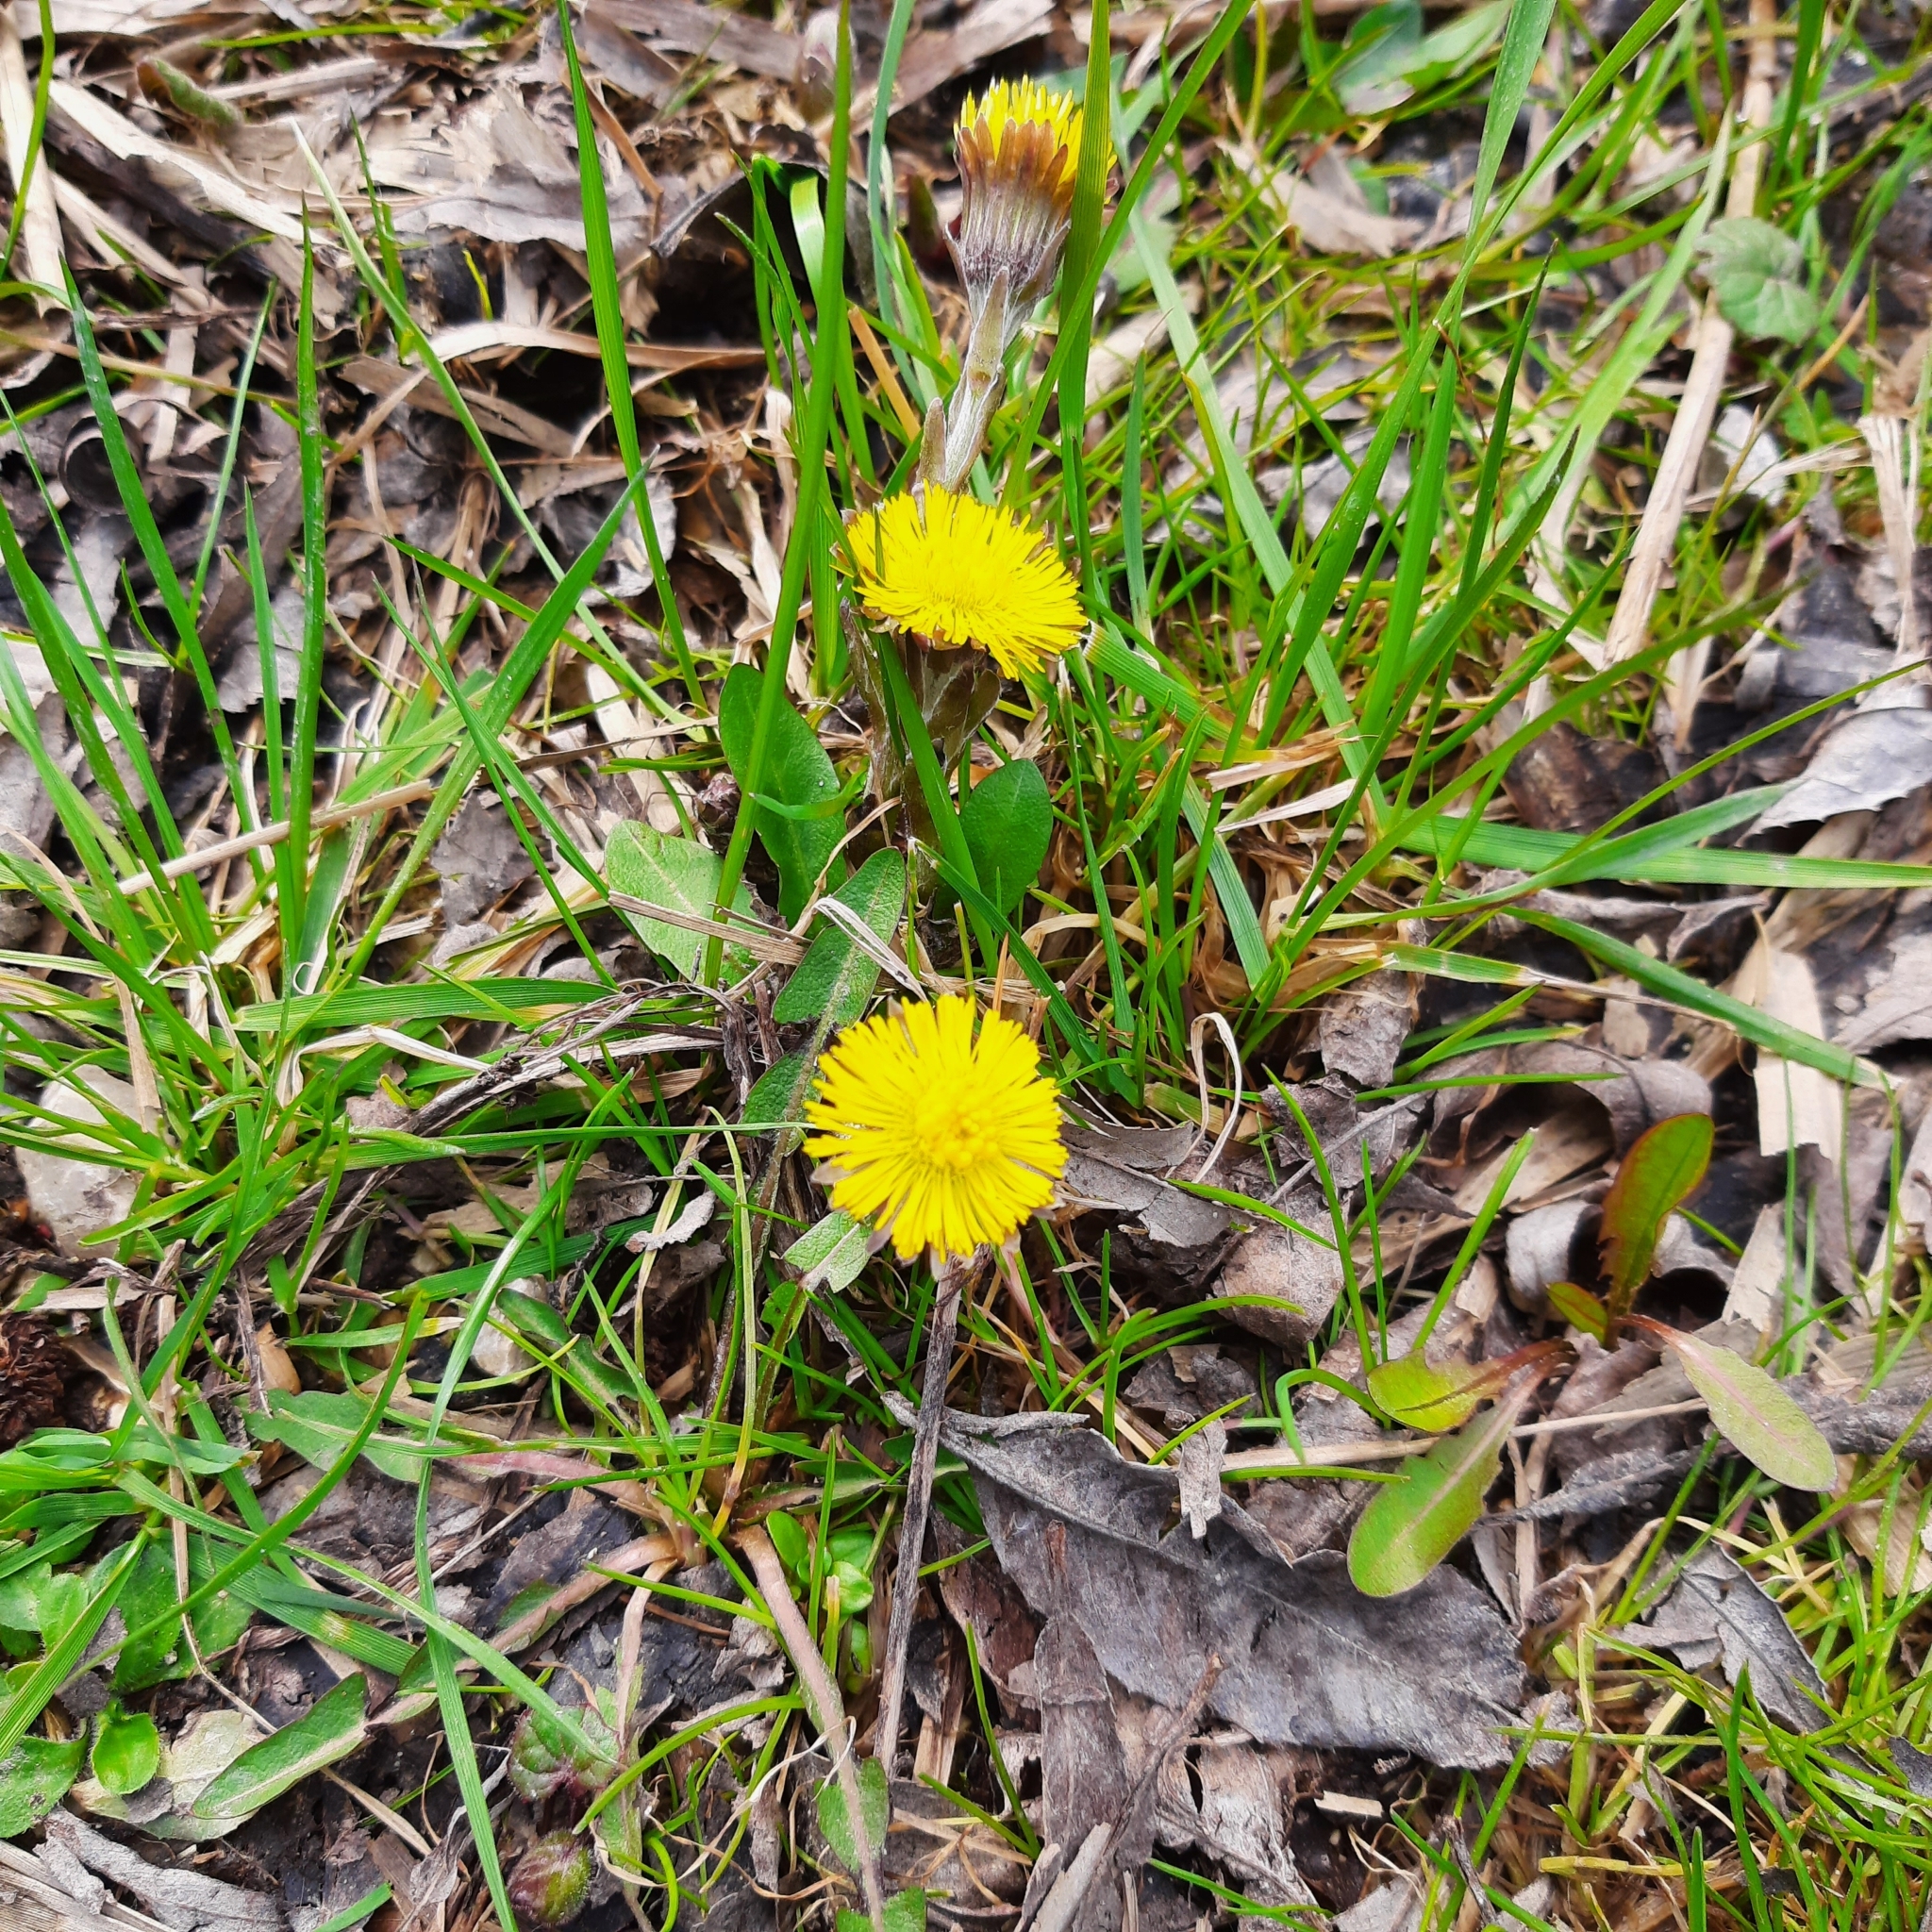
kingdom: Plantae
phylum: Tracheophyta
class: Magnoliopsida
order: Asterales
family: Asteraceae
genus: Tussilago
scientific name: Tussilago farfara
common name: Coltsfoot
